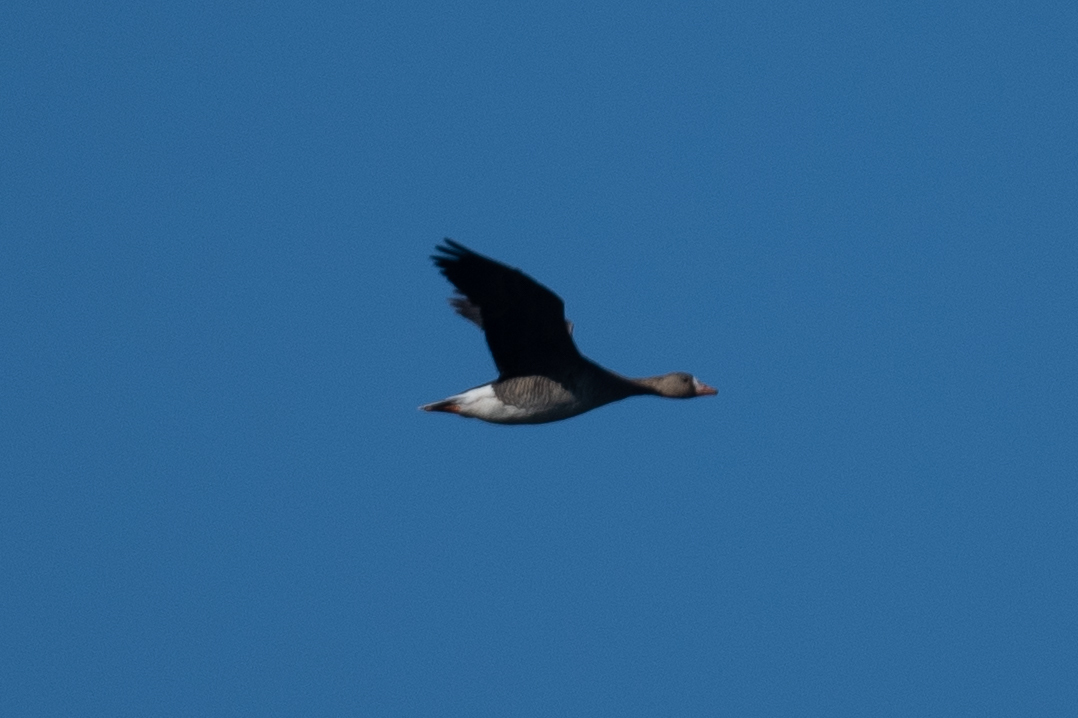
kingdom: Animalia
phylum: Chordata
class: Aves
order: Anseriformes
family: Anatidae
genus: Anser
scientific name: Anser albifrons
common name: Greater white-fronted goose
